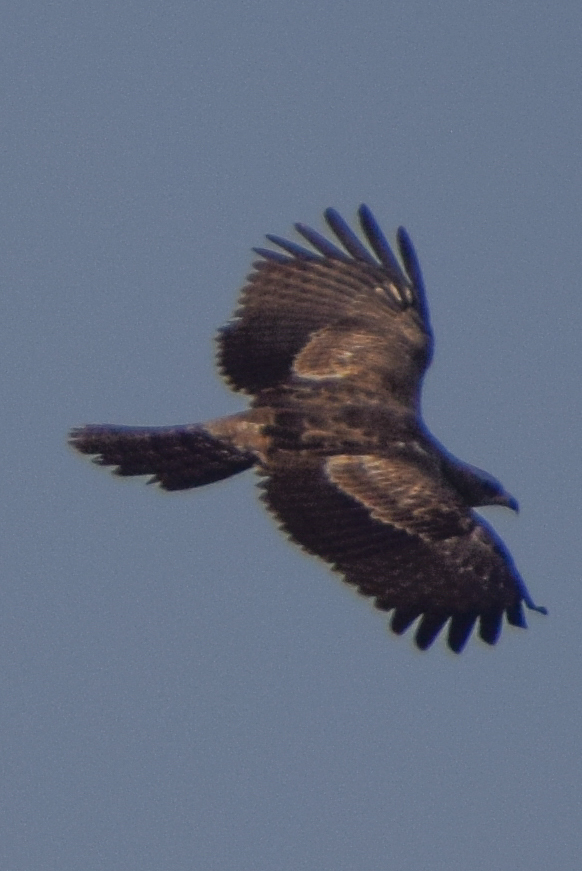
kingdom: Animalia
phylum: Chordata
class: Aves
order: Accipitriformes
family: Accipitridae
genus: Pernis
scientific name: Pernis ptilorhynchus
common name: Crested honey buzzard
